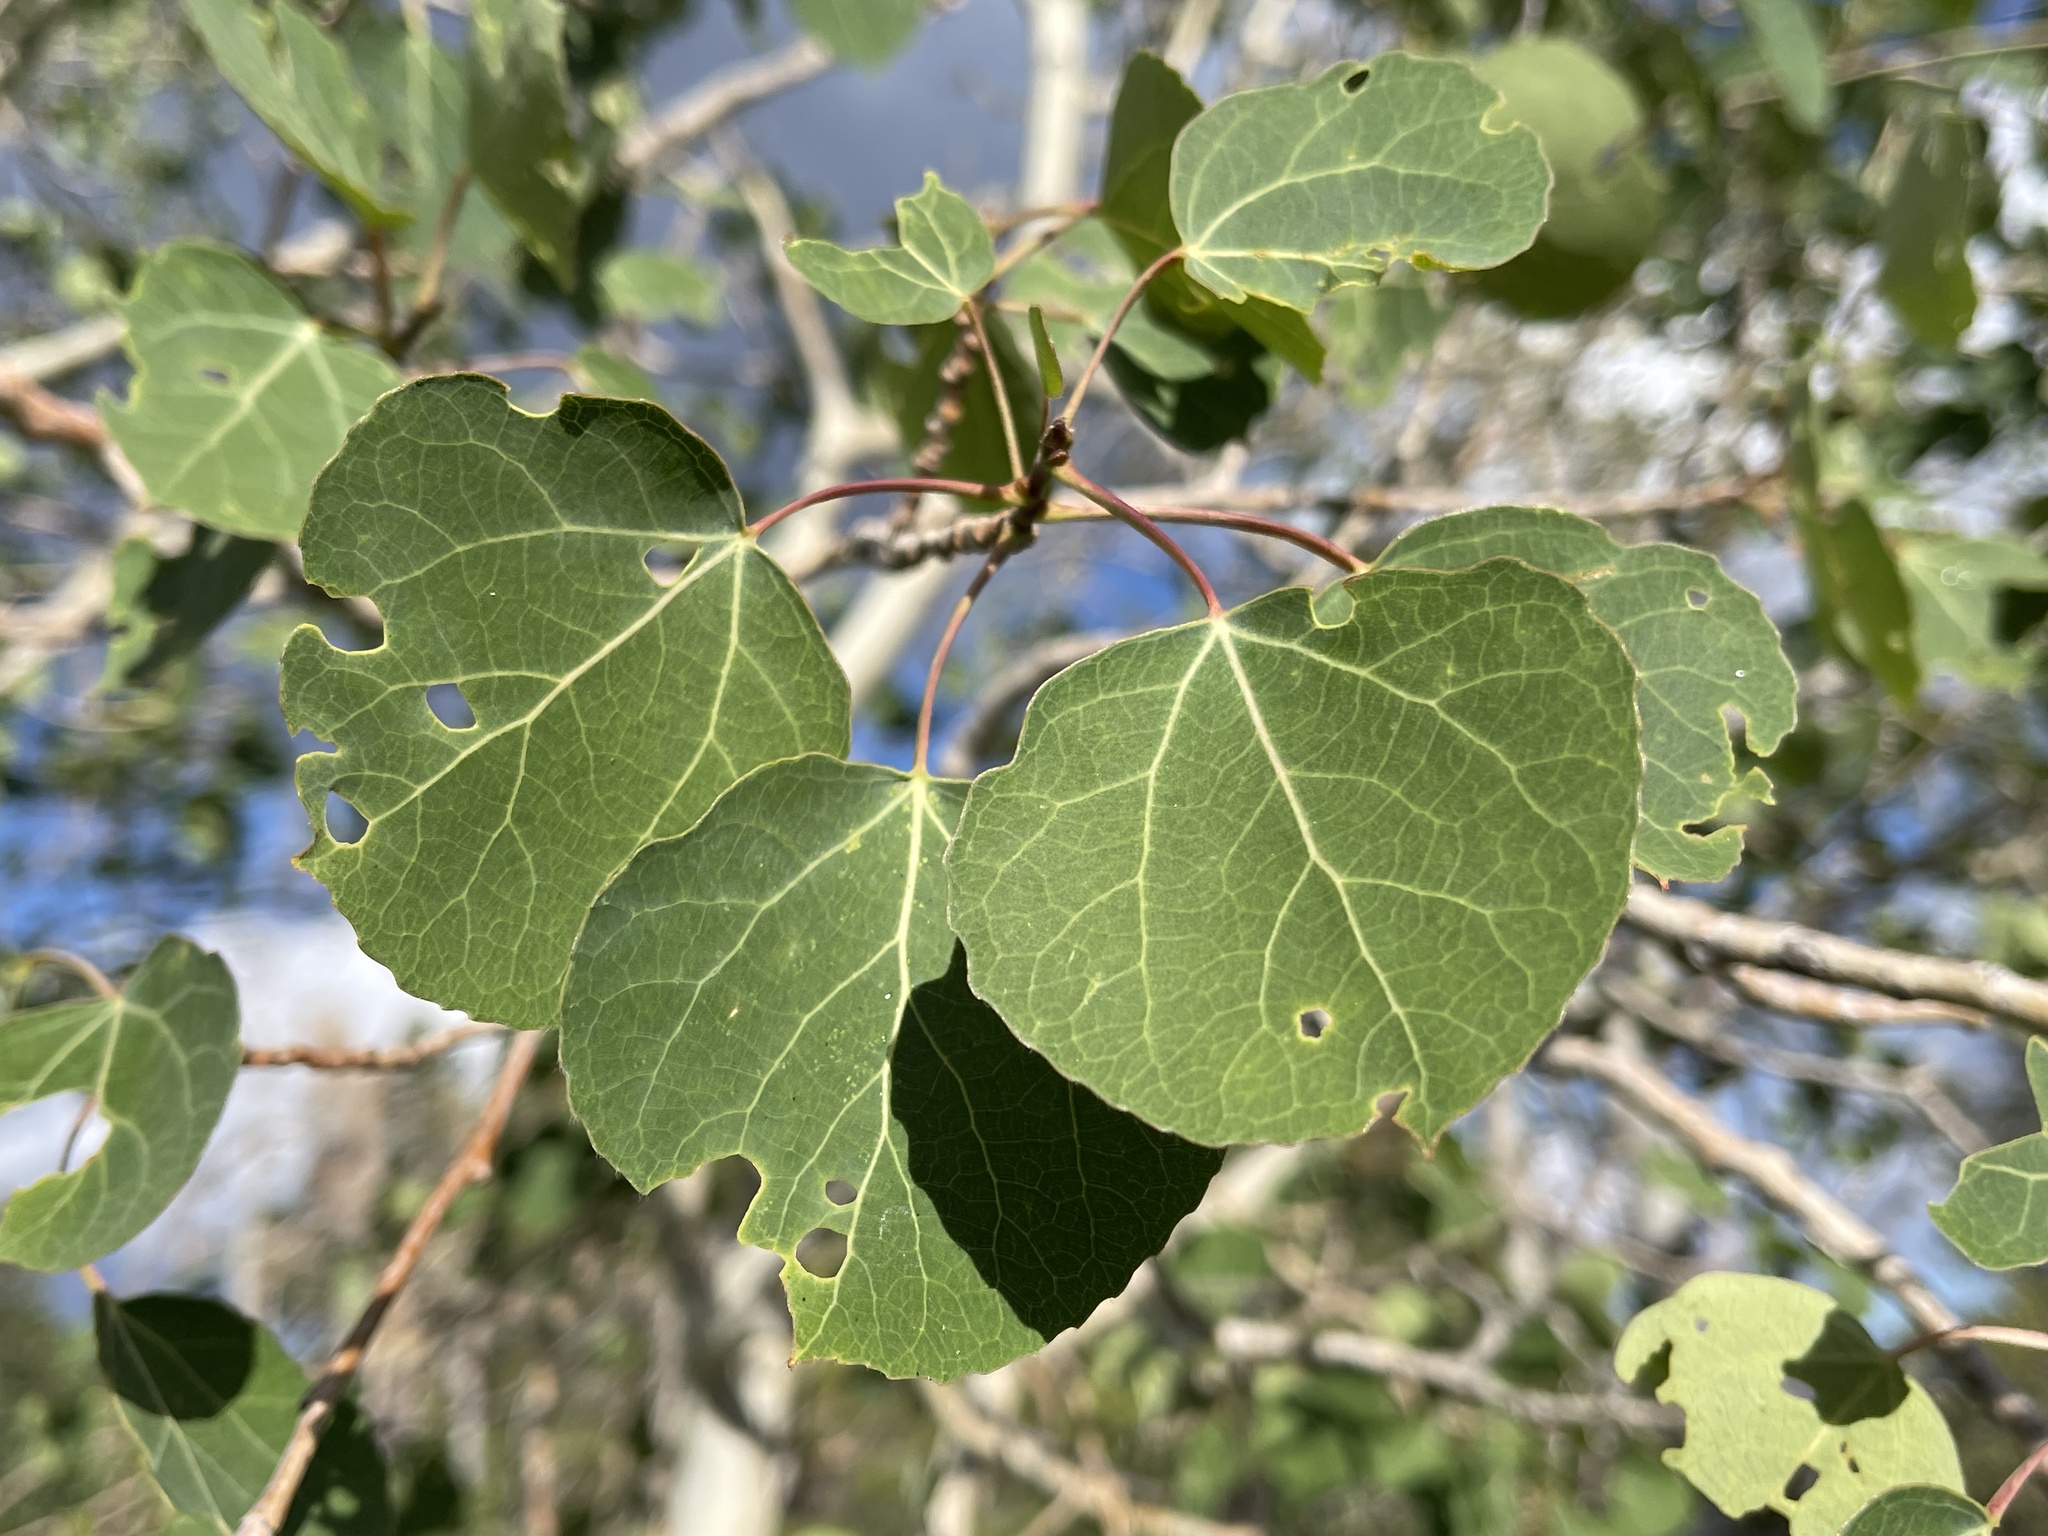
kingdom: Plantae
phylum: Tracheophyta
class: Magnoliopsida
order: Malpighiales
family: Salicaceae
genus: Populus
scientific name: Populus tremuloides
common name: Quaking aspen
